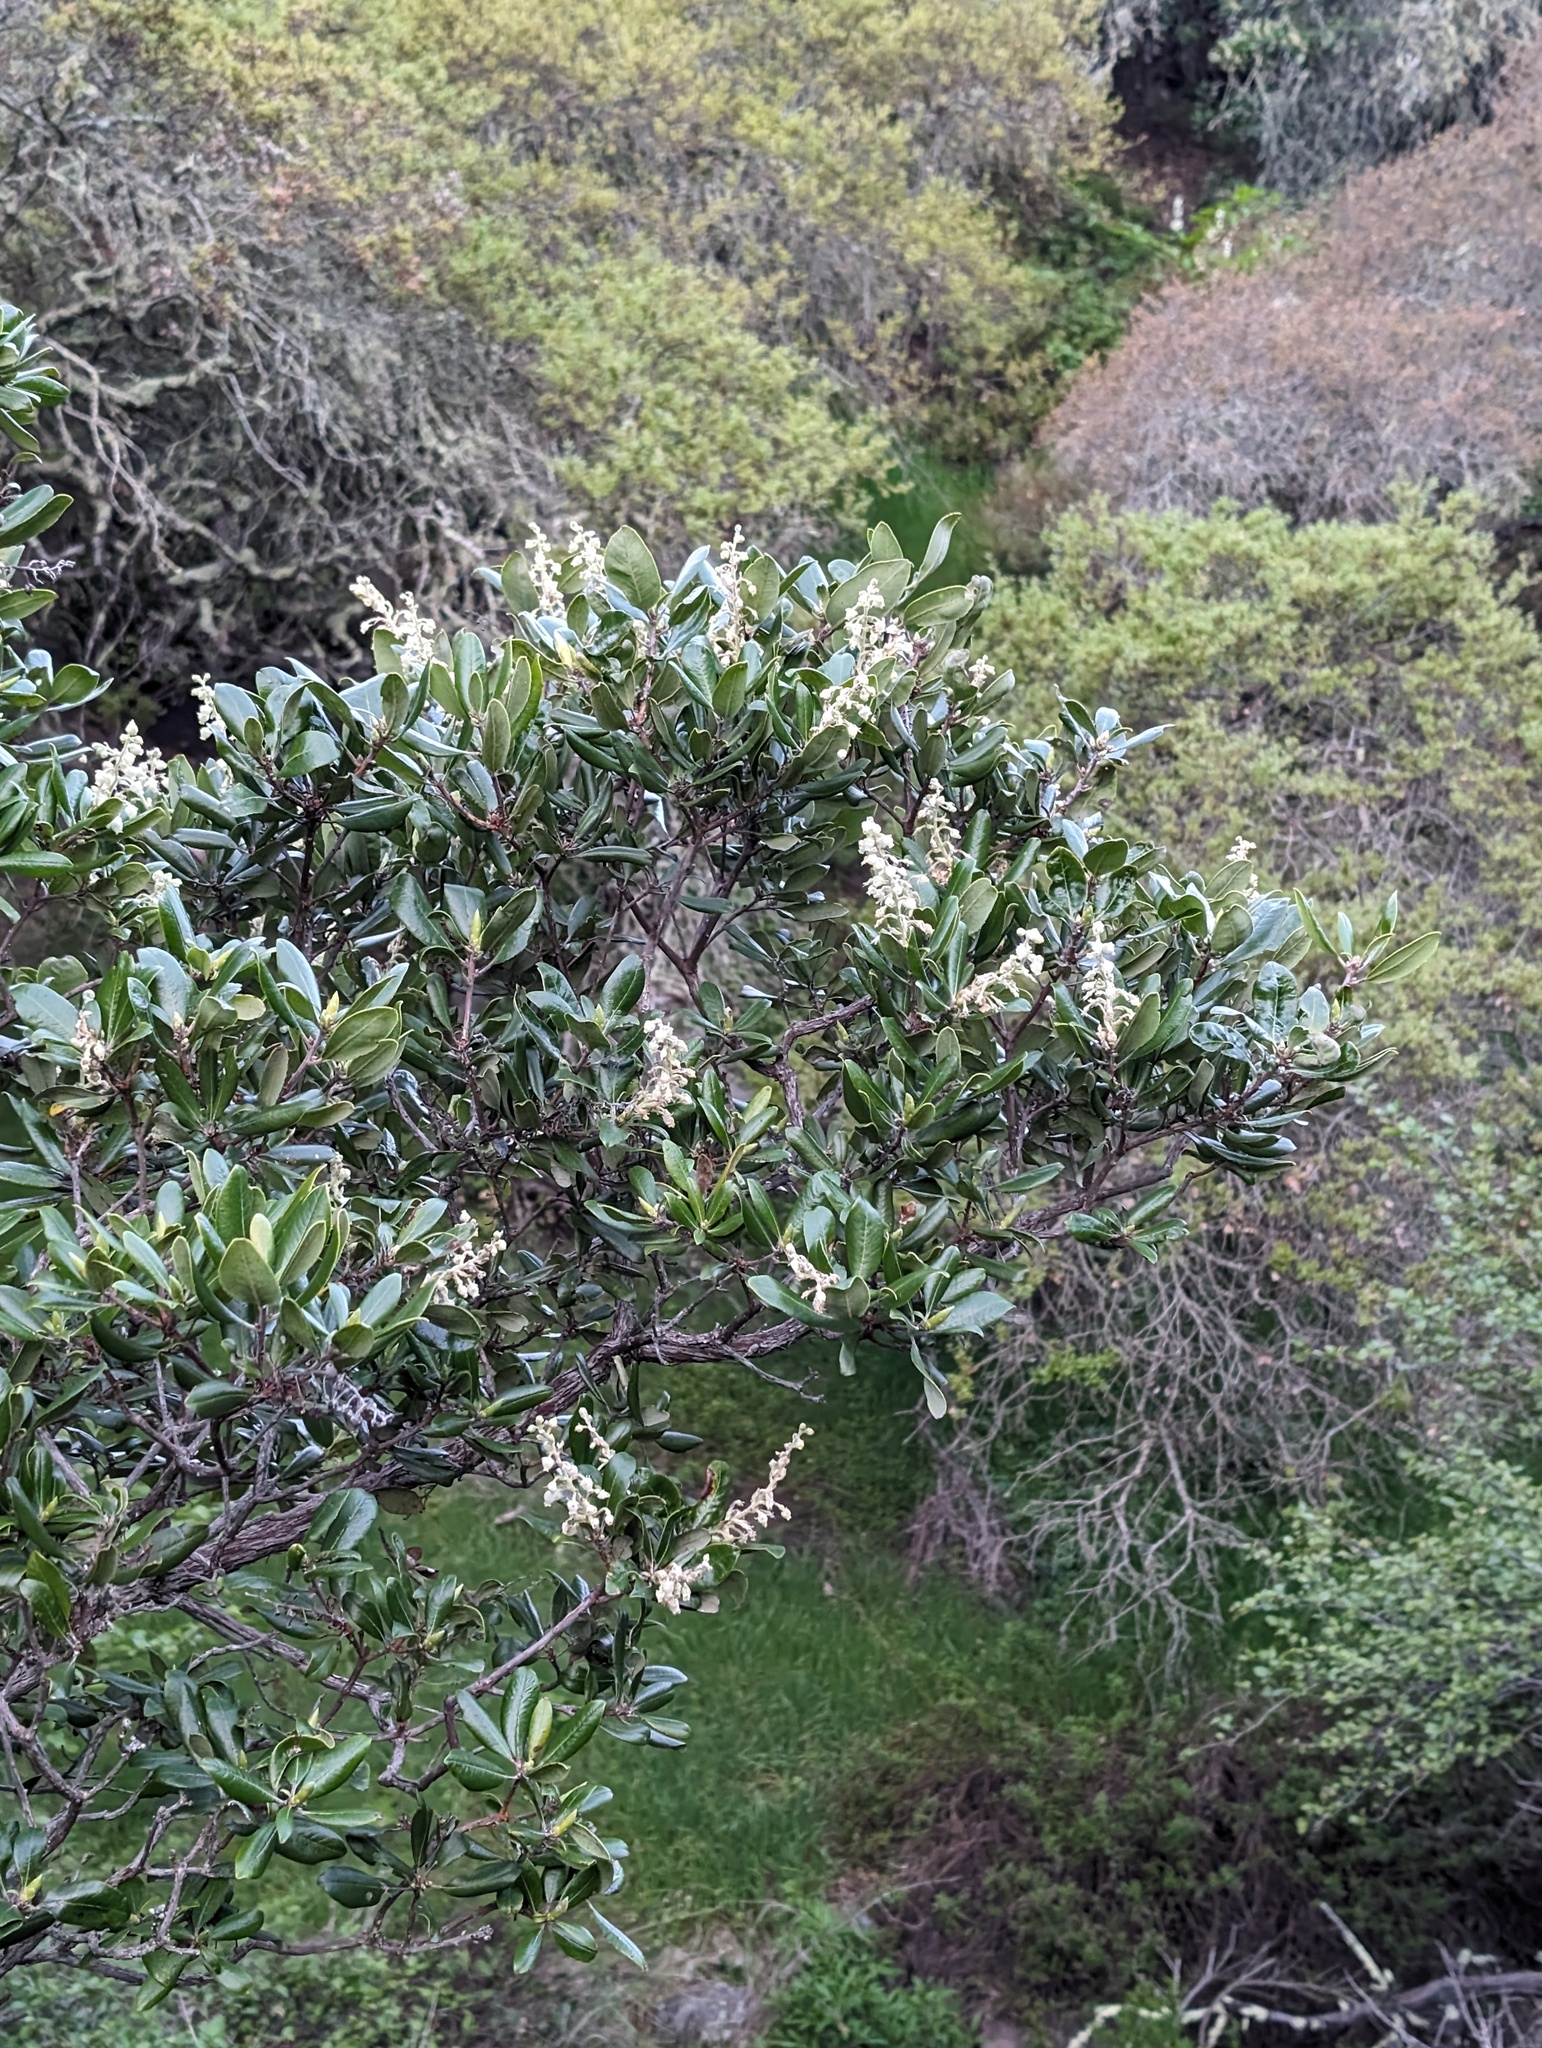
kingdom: Plantae
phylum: Tracheophyta
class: Magnoliopsida
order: Ericales
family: Ericaceae
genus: Comarostaphylis
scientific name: Comarostaphylis diversifolia
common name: Summer-holly
